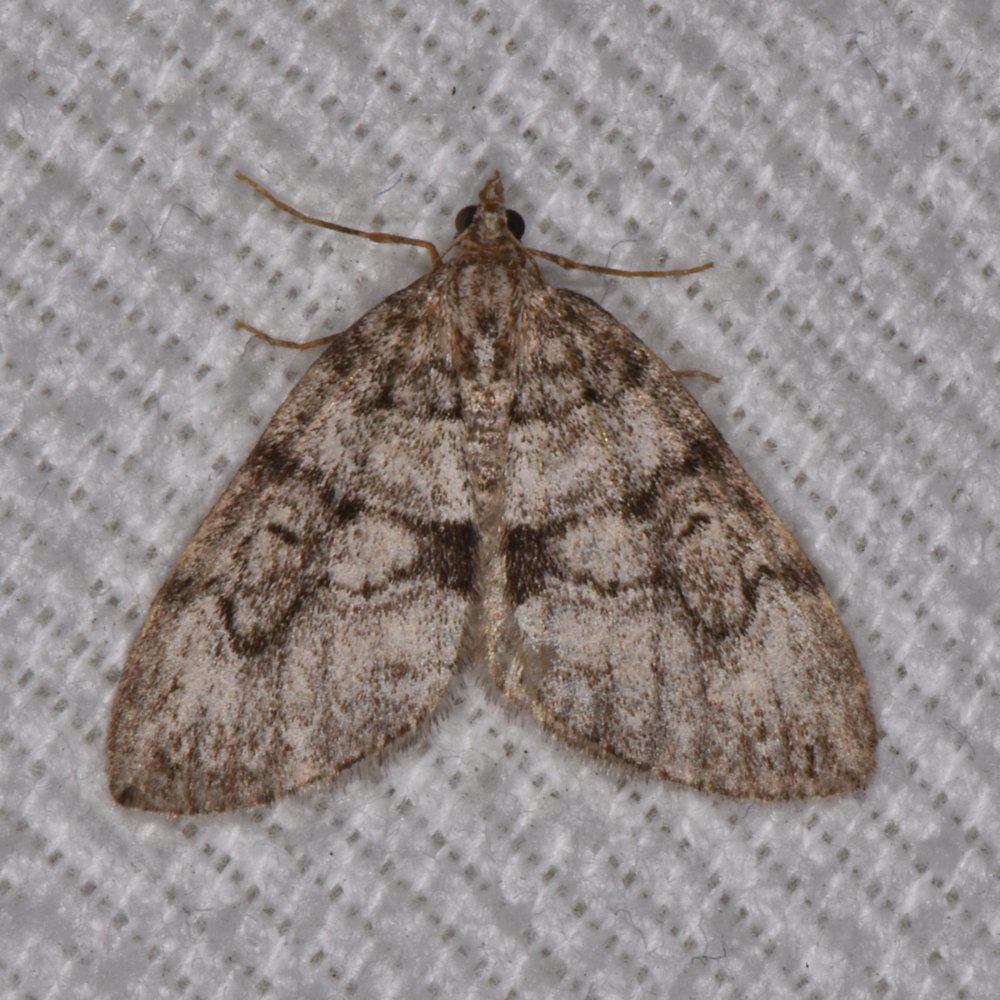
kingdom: Animalia
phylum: Arthropoda
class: Insecta
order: Lepidoptera
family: Geometridae
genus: Thera
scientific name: Thera contractata
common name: Contracted spanworm
